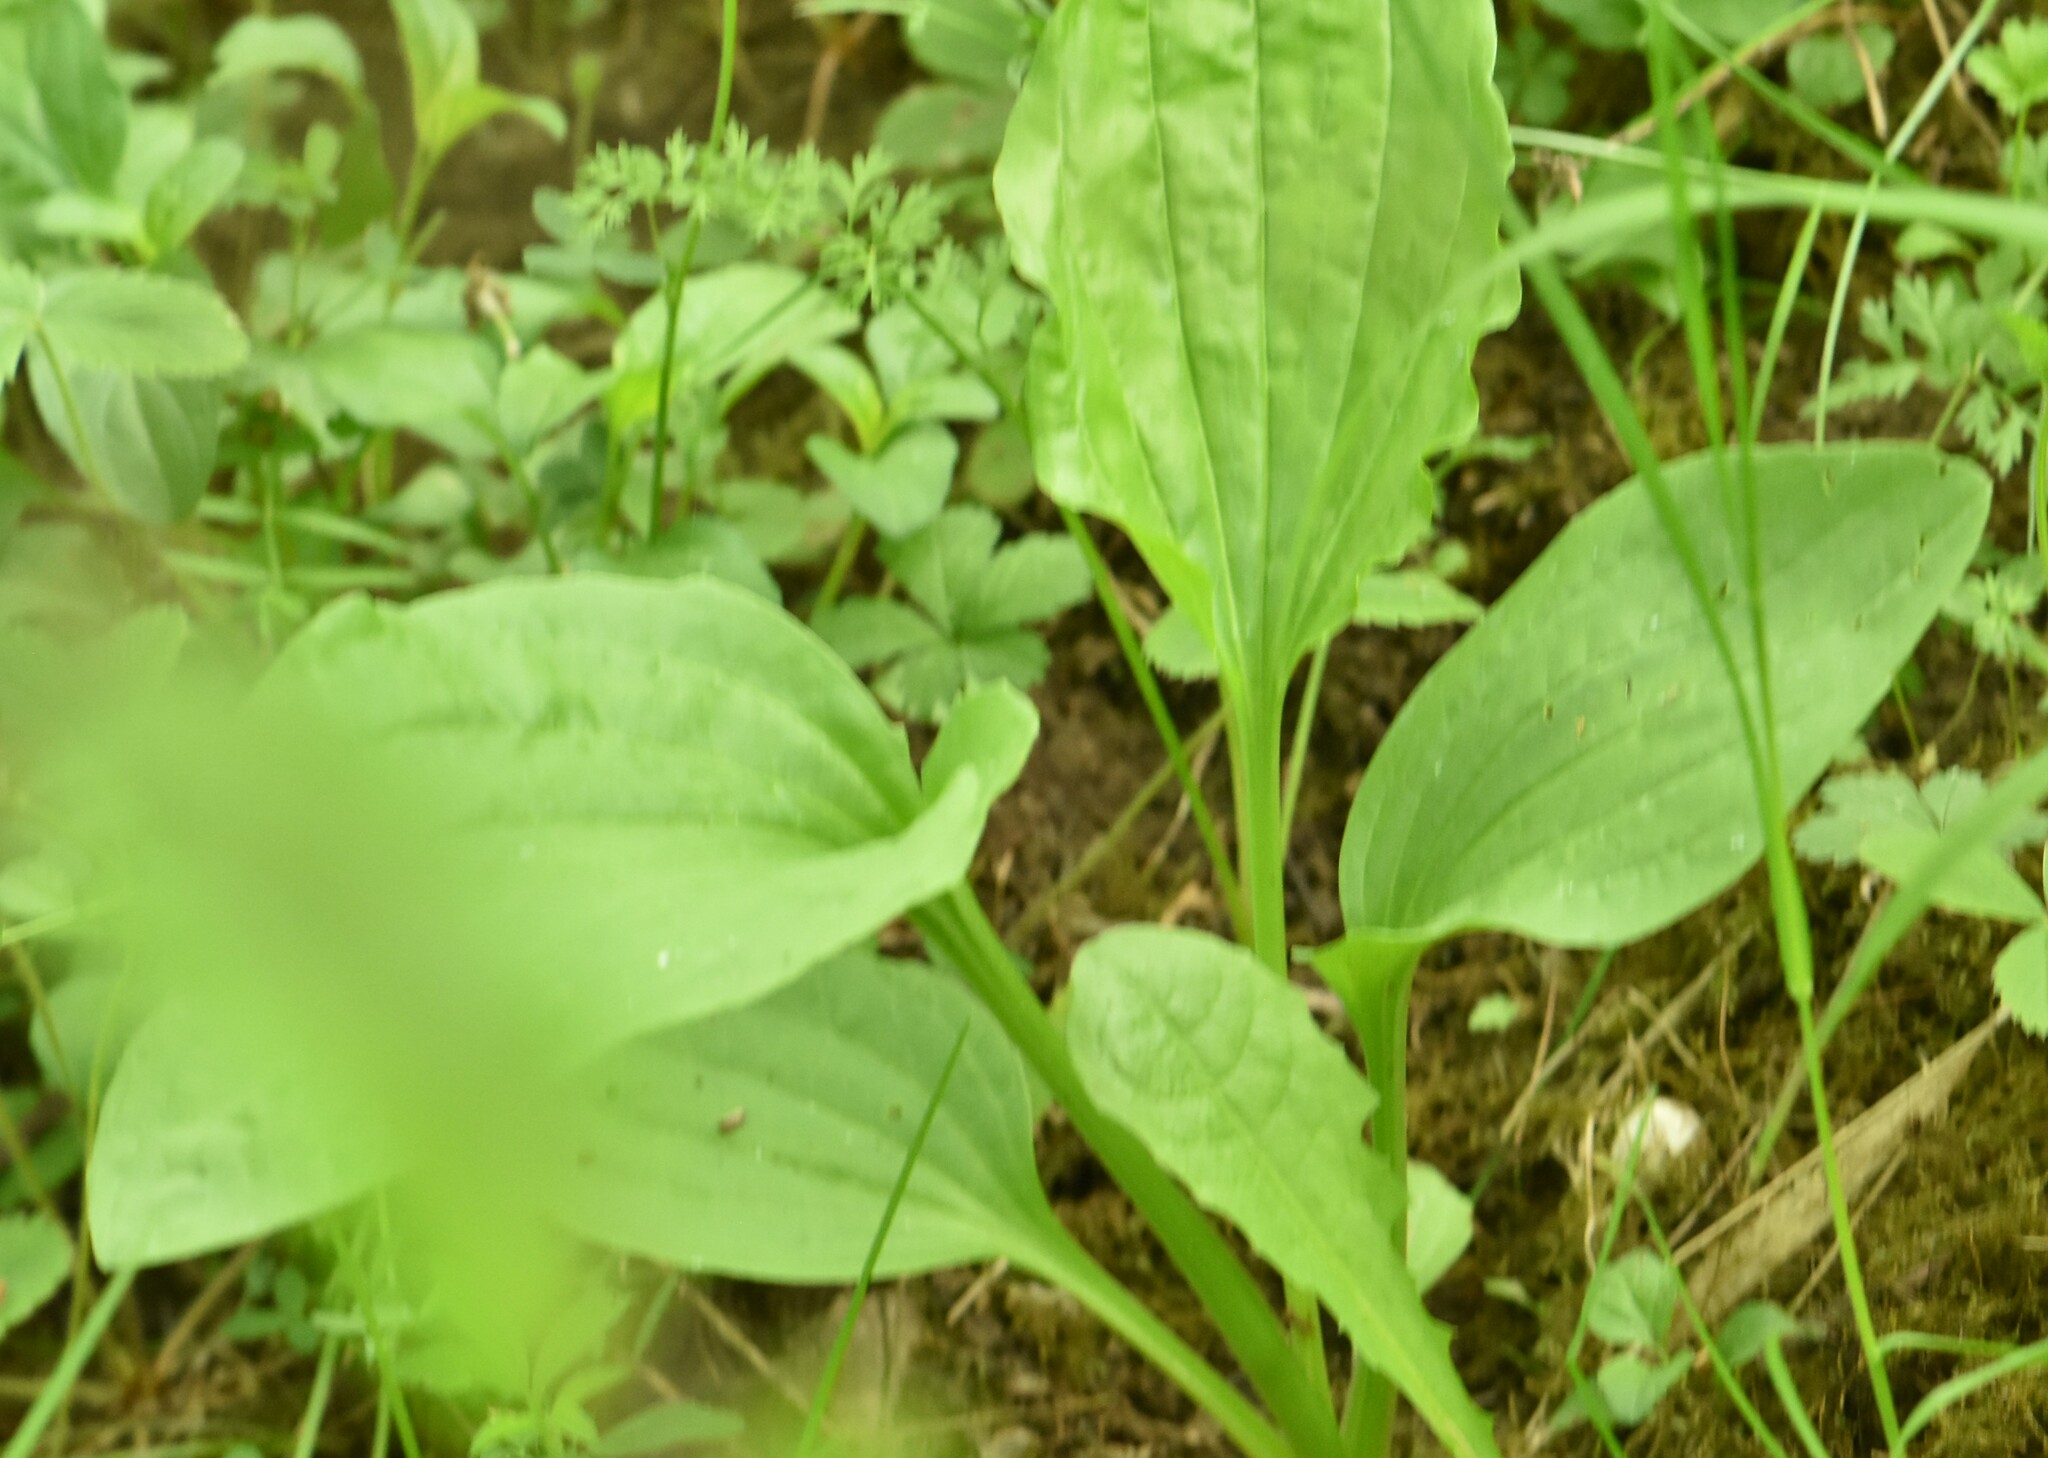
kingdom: Plantae
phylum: Tracheophyta
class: Magnoliopsida
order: Lamiales
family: Plantaginaceae
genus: Plantago
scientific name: Plantago major
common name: Common plantain
